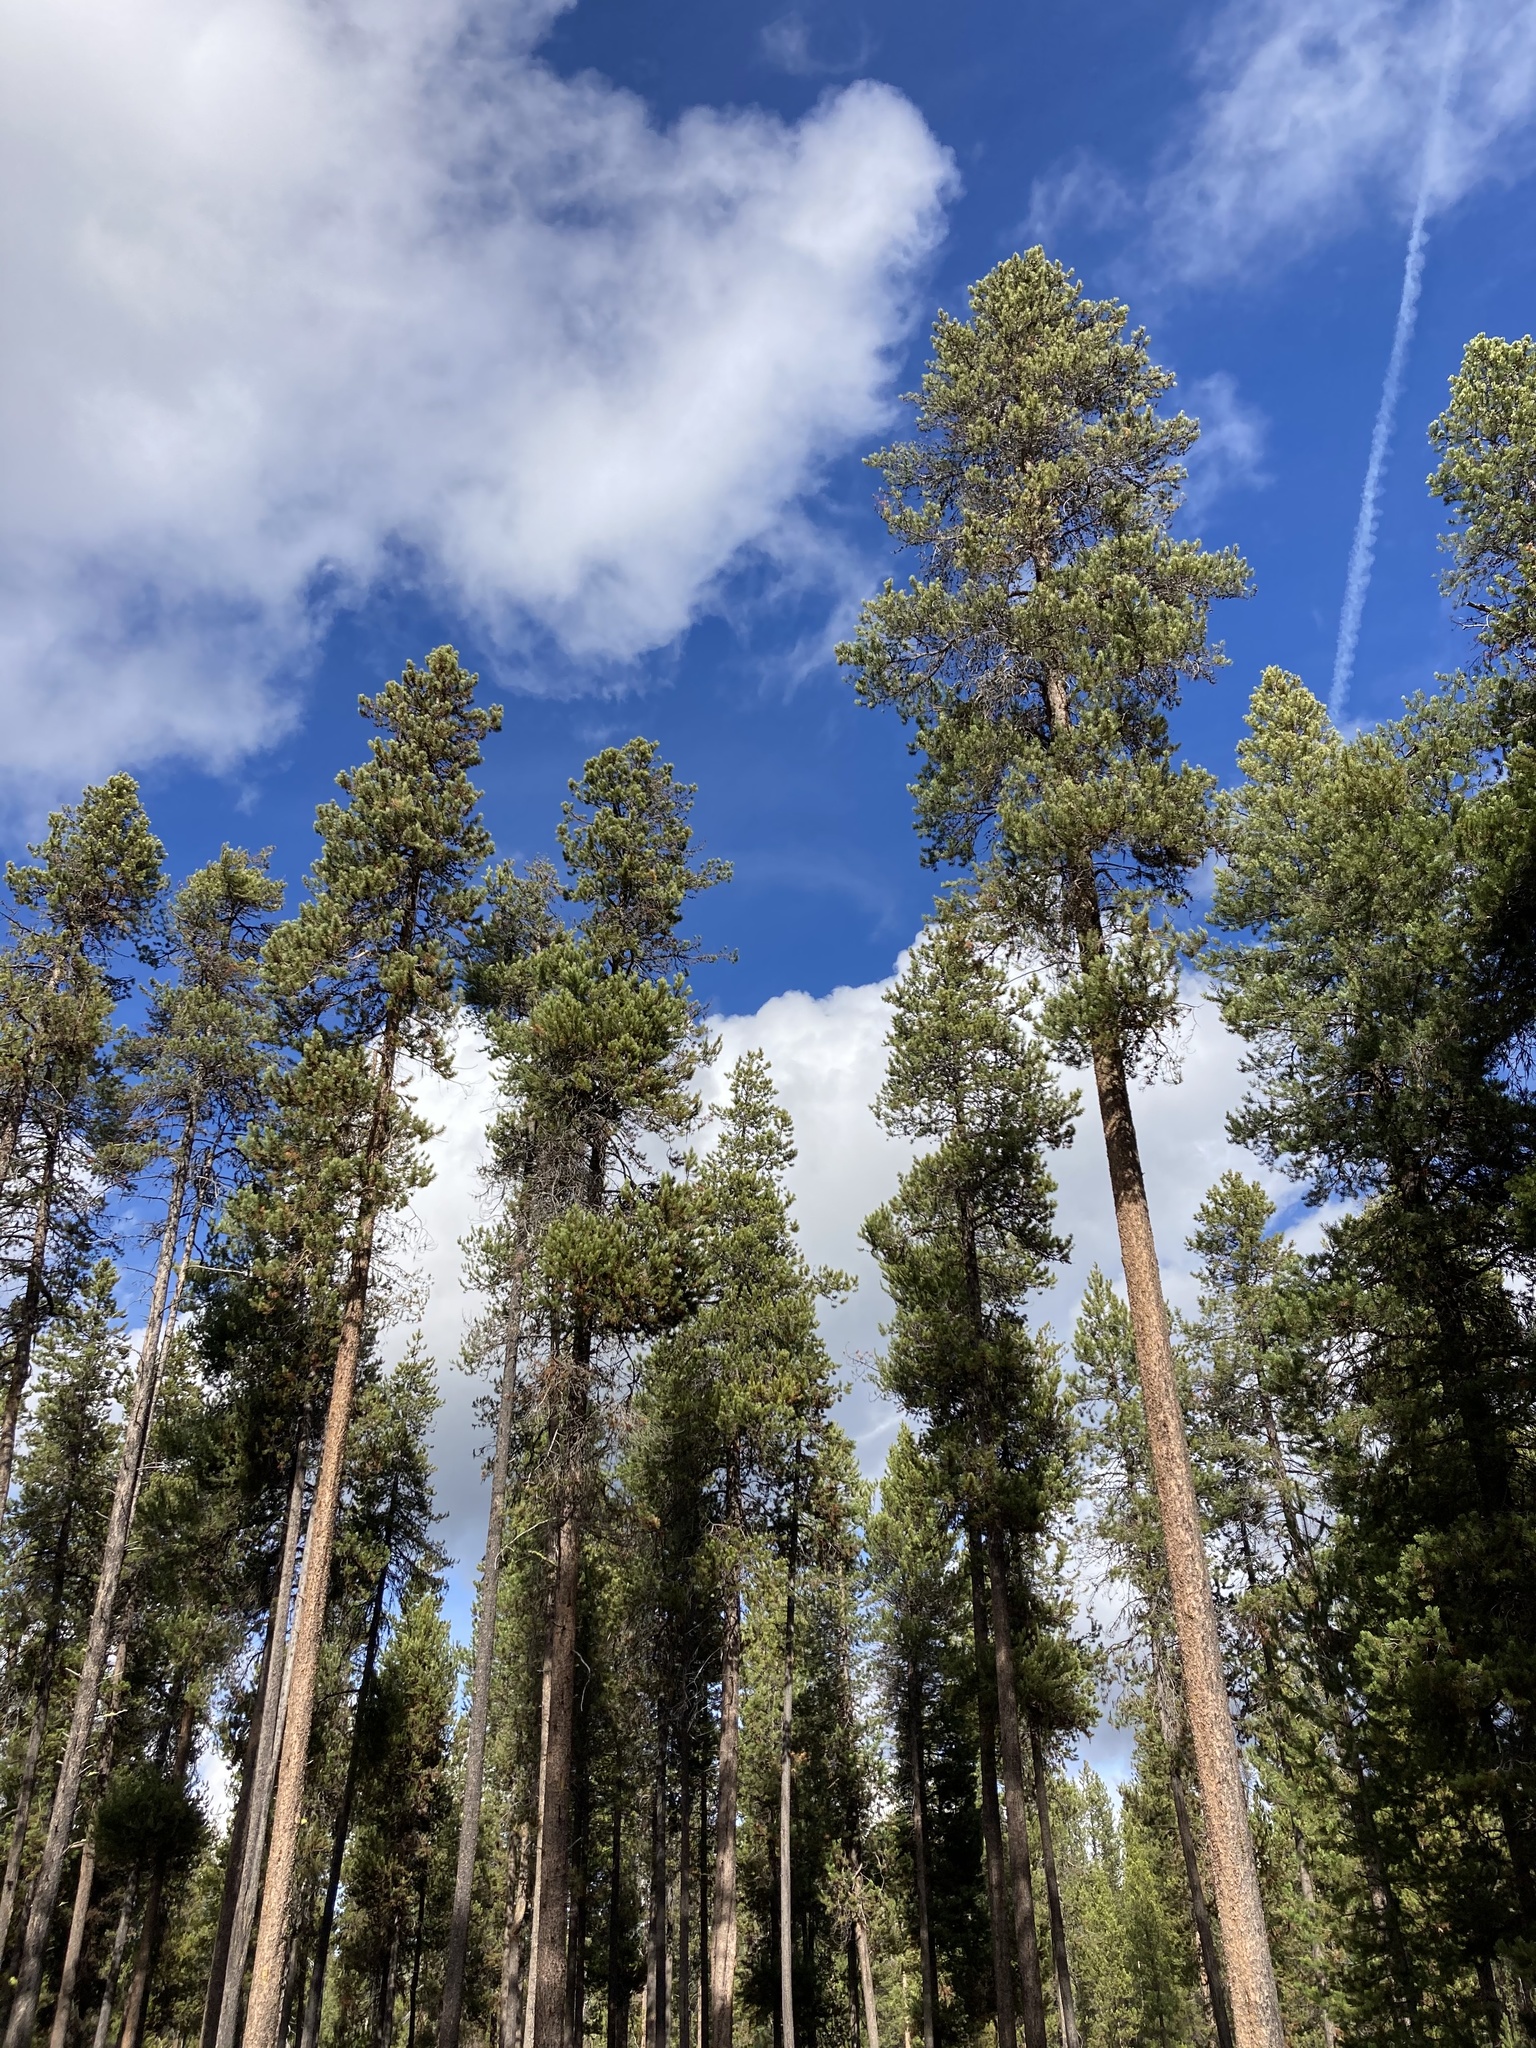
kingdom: Plantae
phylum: Tracheophyta
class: Pinopsida
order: Pinales
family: Pinaceae
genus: Pinus
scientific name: Pinus contorta
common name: Lodgepole pine
